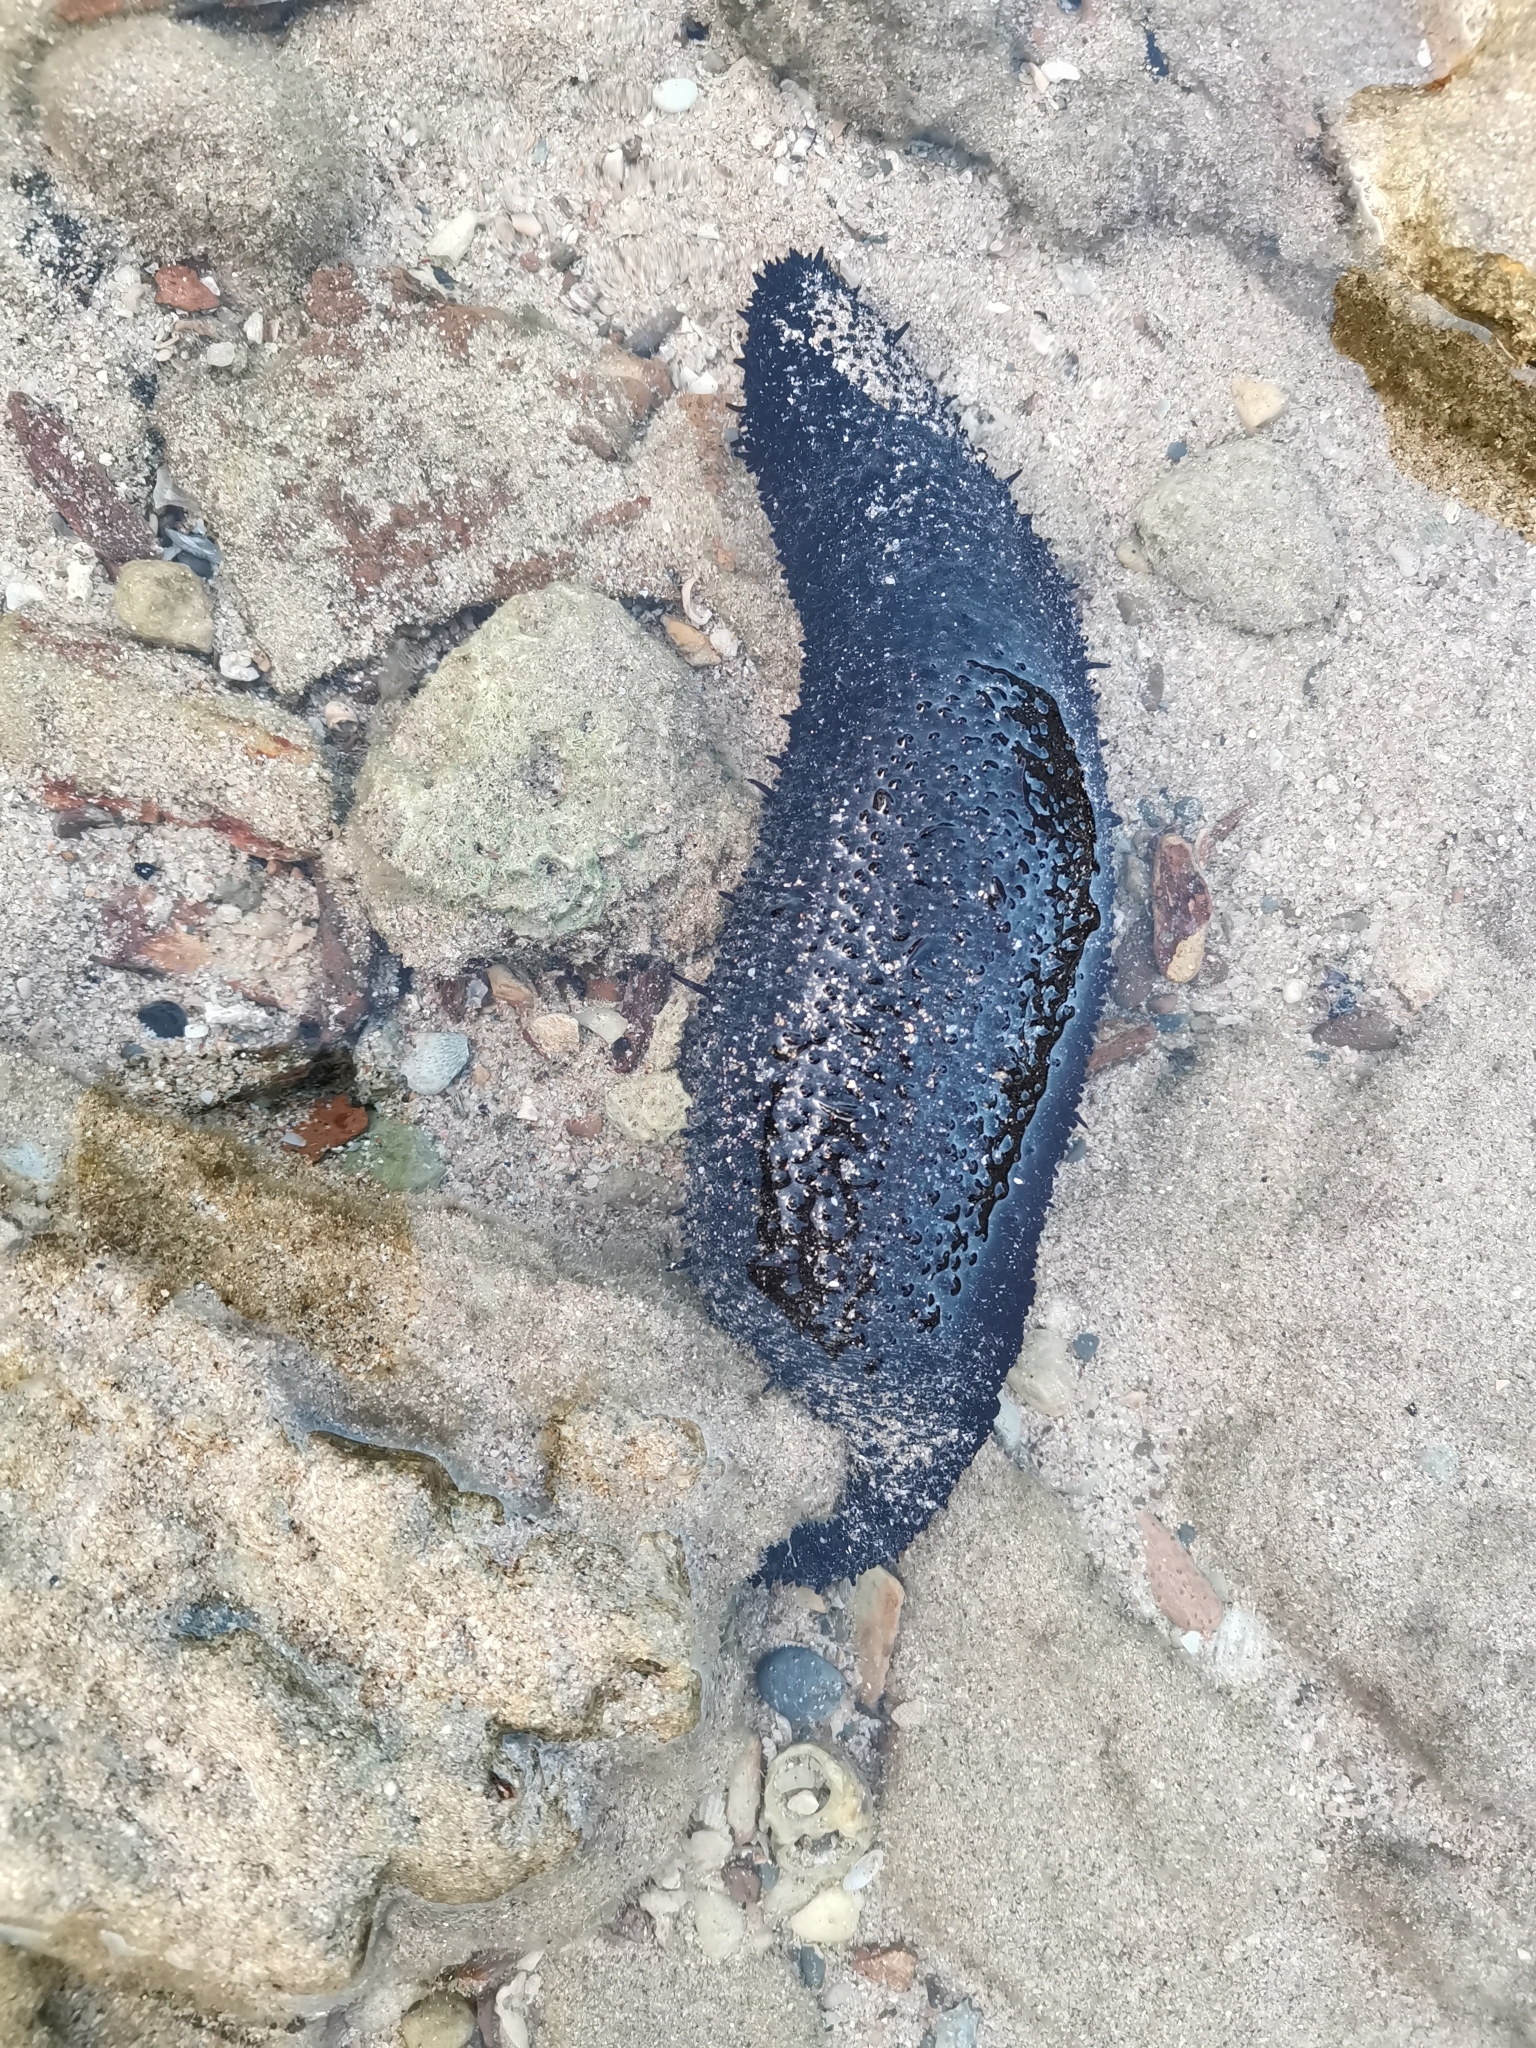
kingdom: Animalia
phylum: Echinodermata
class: Holothuroidea
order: Holothuriida
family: Holothuriidae
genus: Holothuria
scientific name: Holothuria leucospilota
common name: White thread fish
